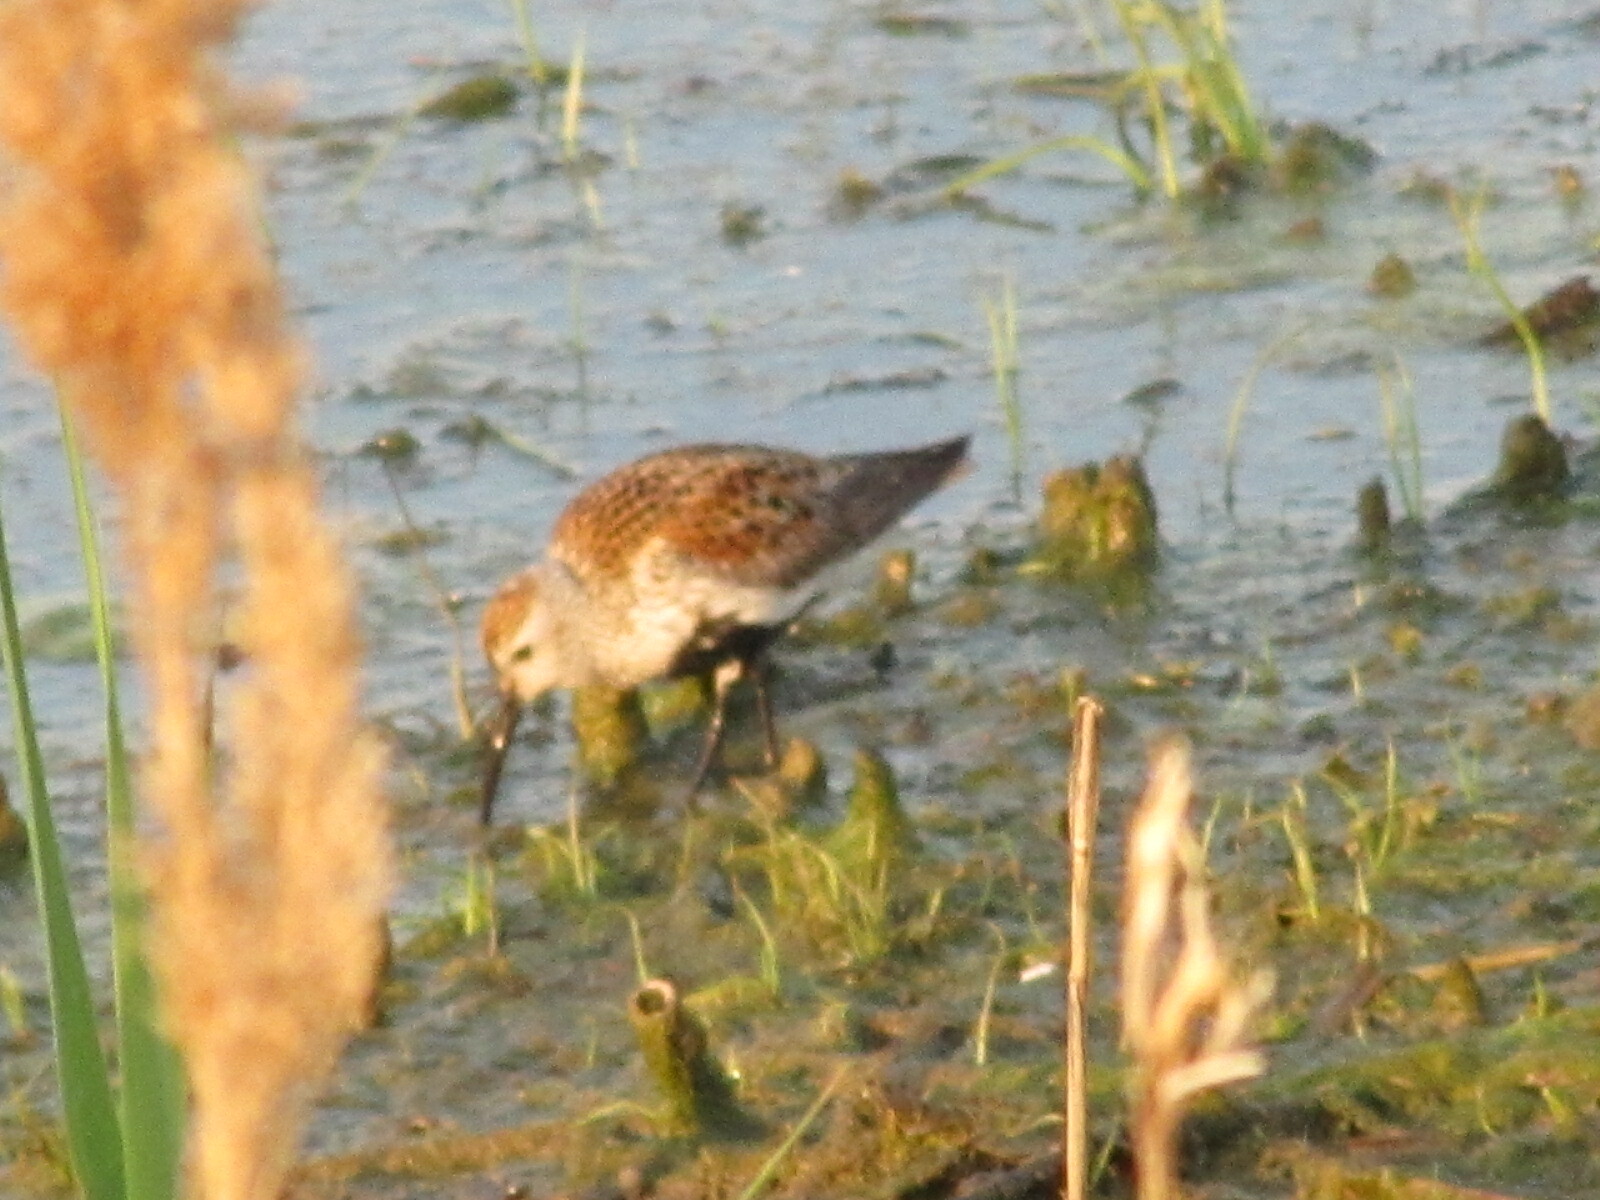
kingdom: Animalia
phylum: Chordata
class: Aves
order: Charadriiformes
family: Scolopacidae
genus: Calidris
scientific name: Calidris alpina
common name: Dunlin
